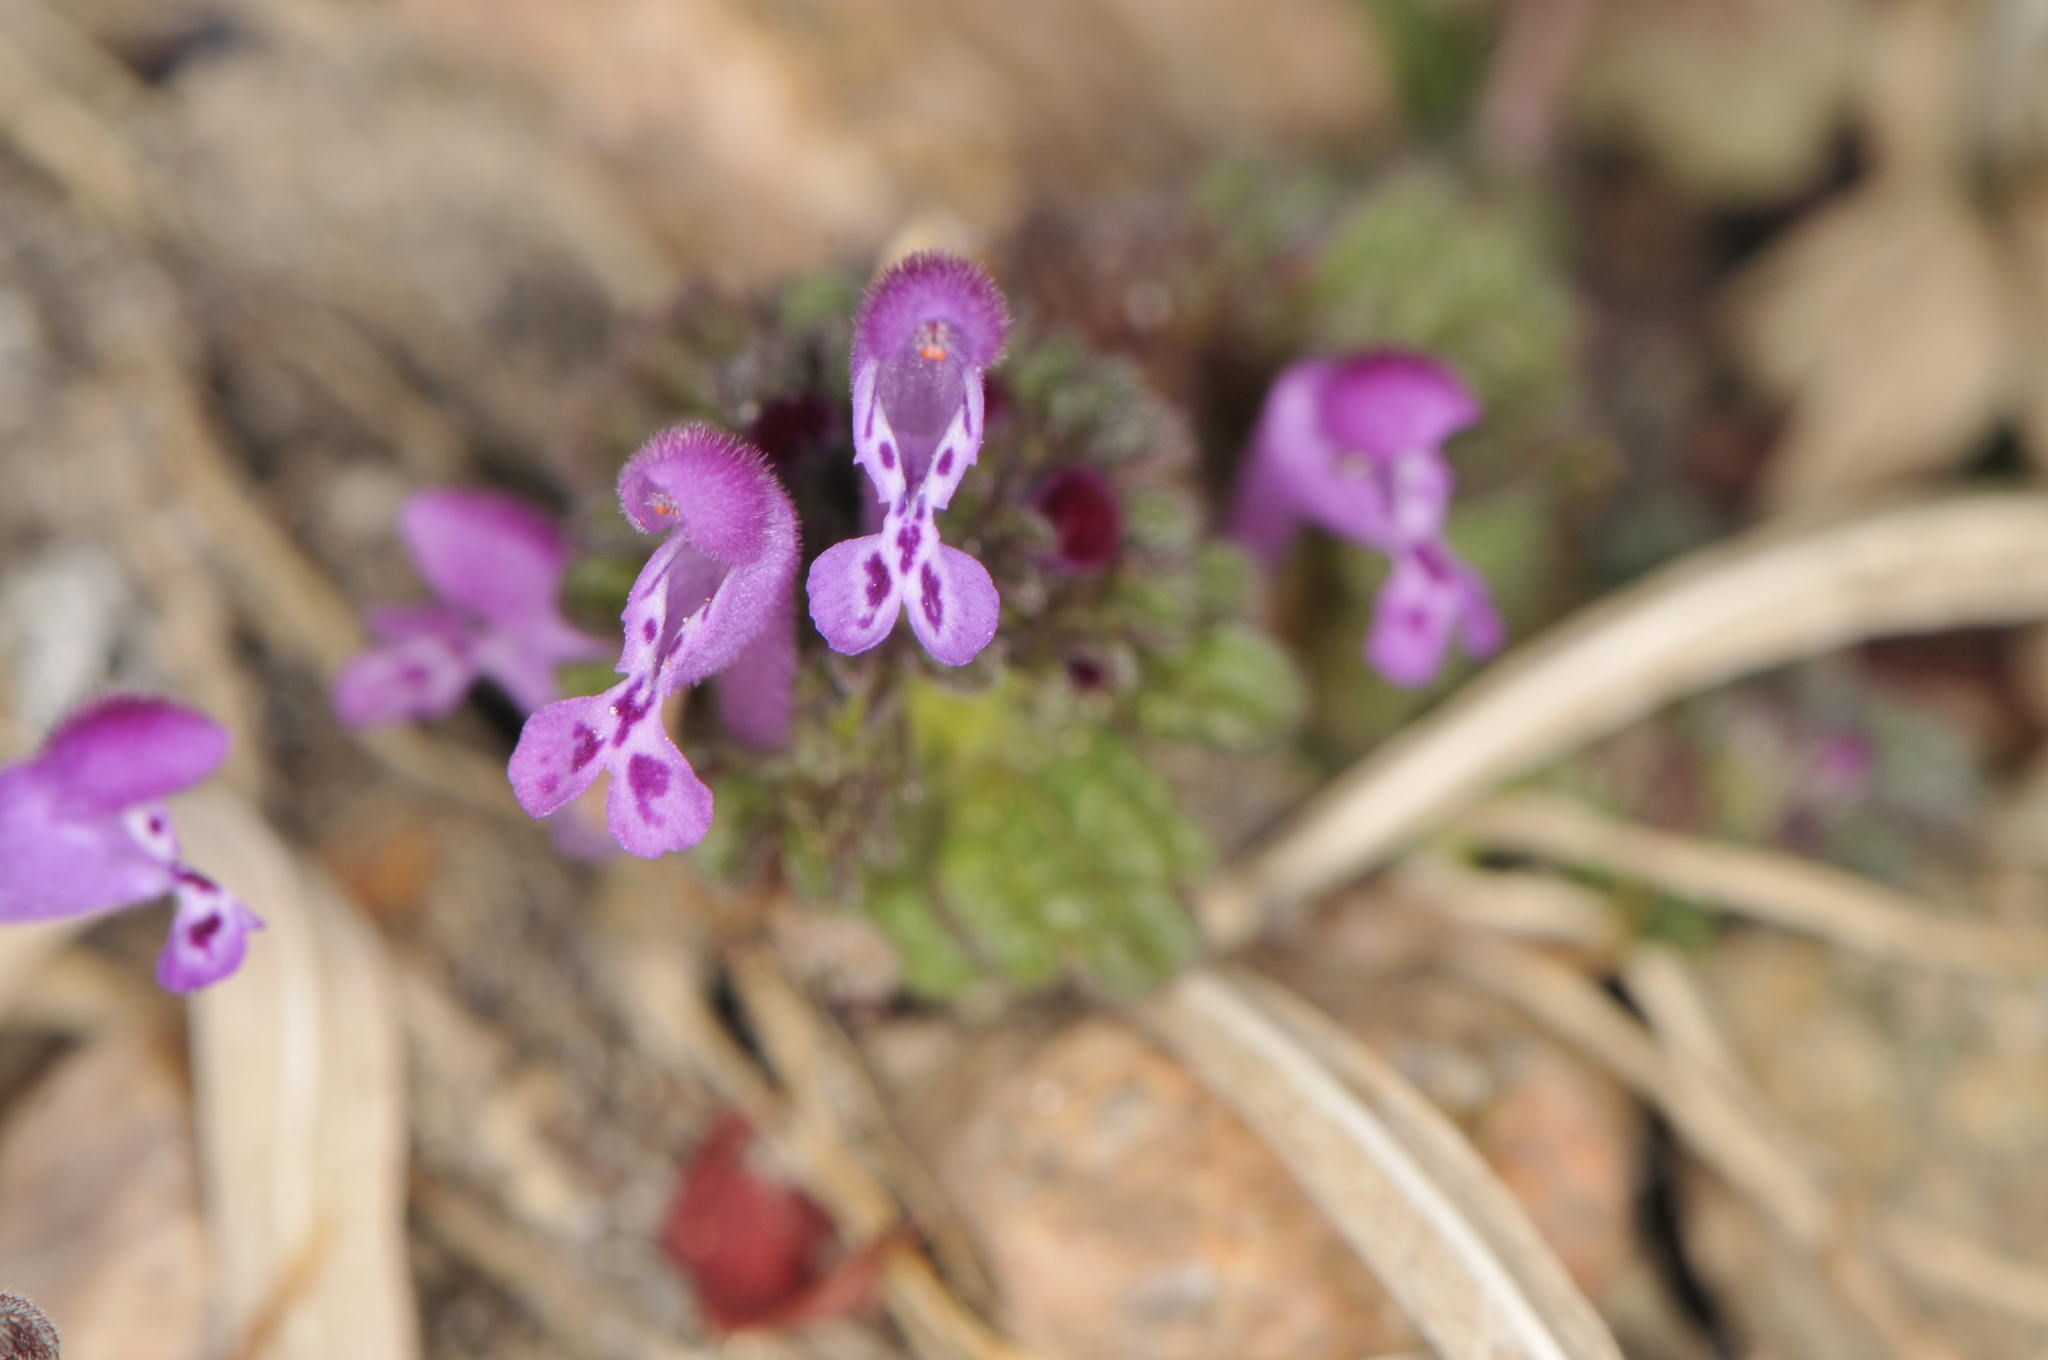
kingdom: Plantae
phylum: Tracheophyta
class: Magnoliopsida
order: Lamiales
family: Lamiaceae
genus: Lamium
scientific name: Lamium amplexicaule
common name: Henbit dead-nettle
